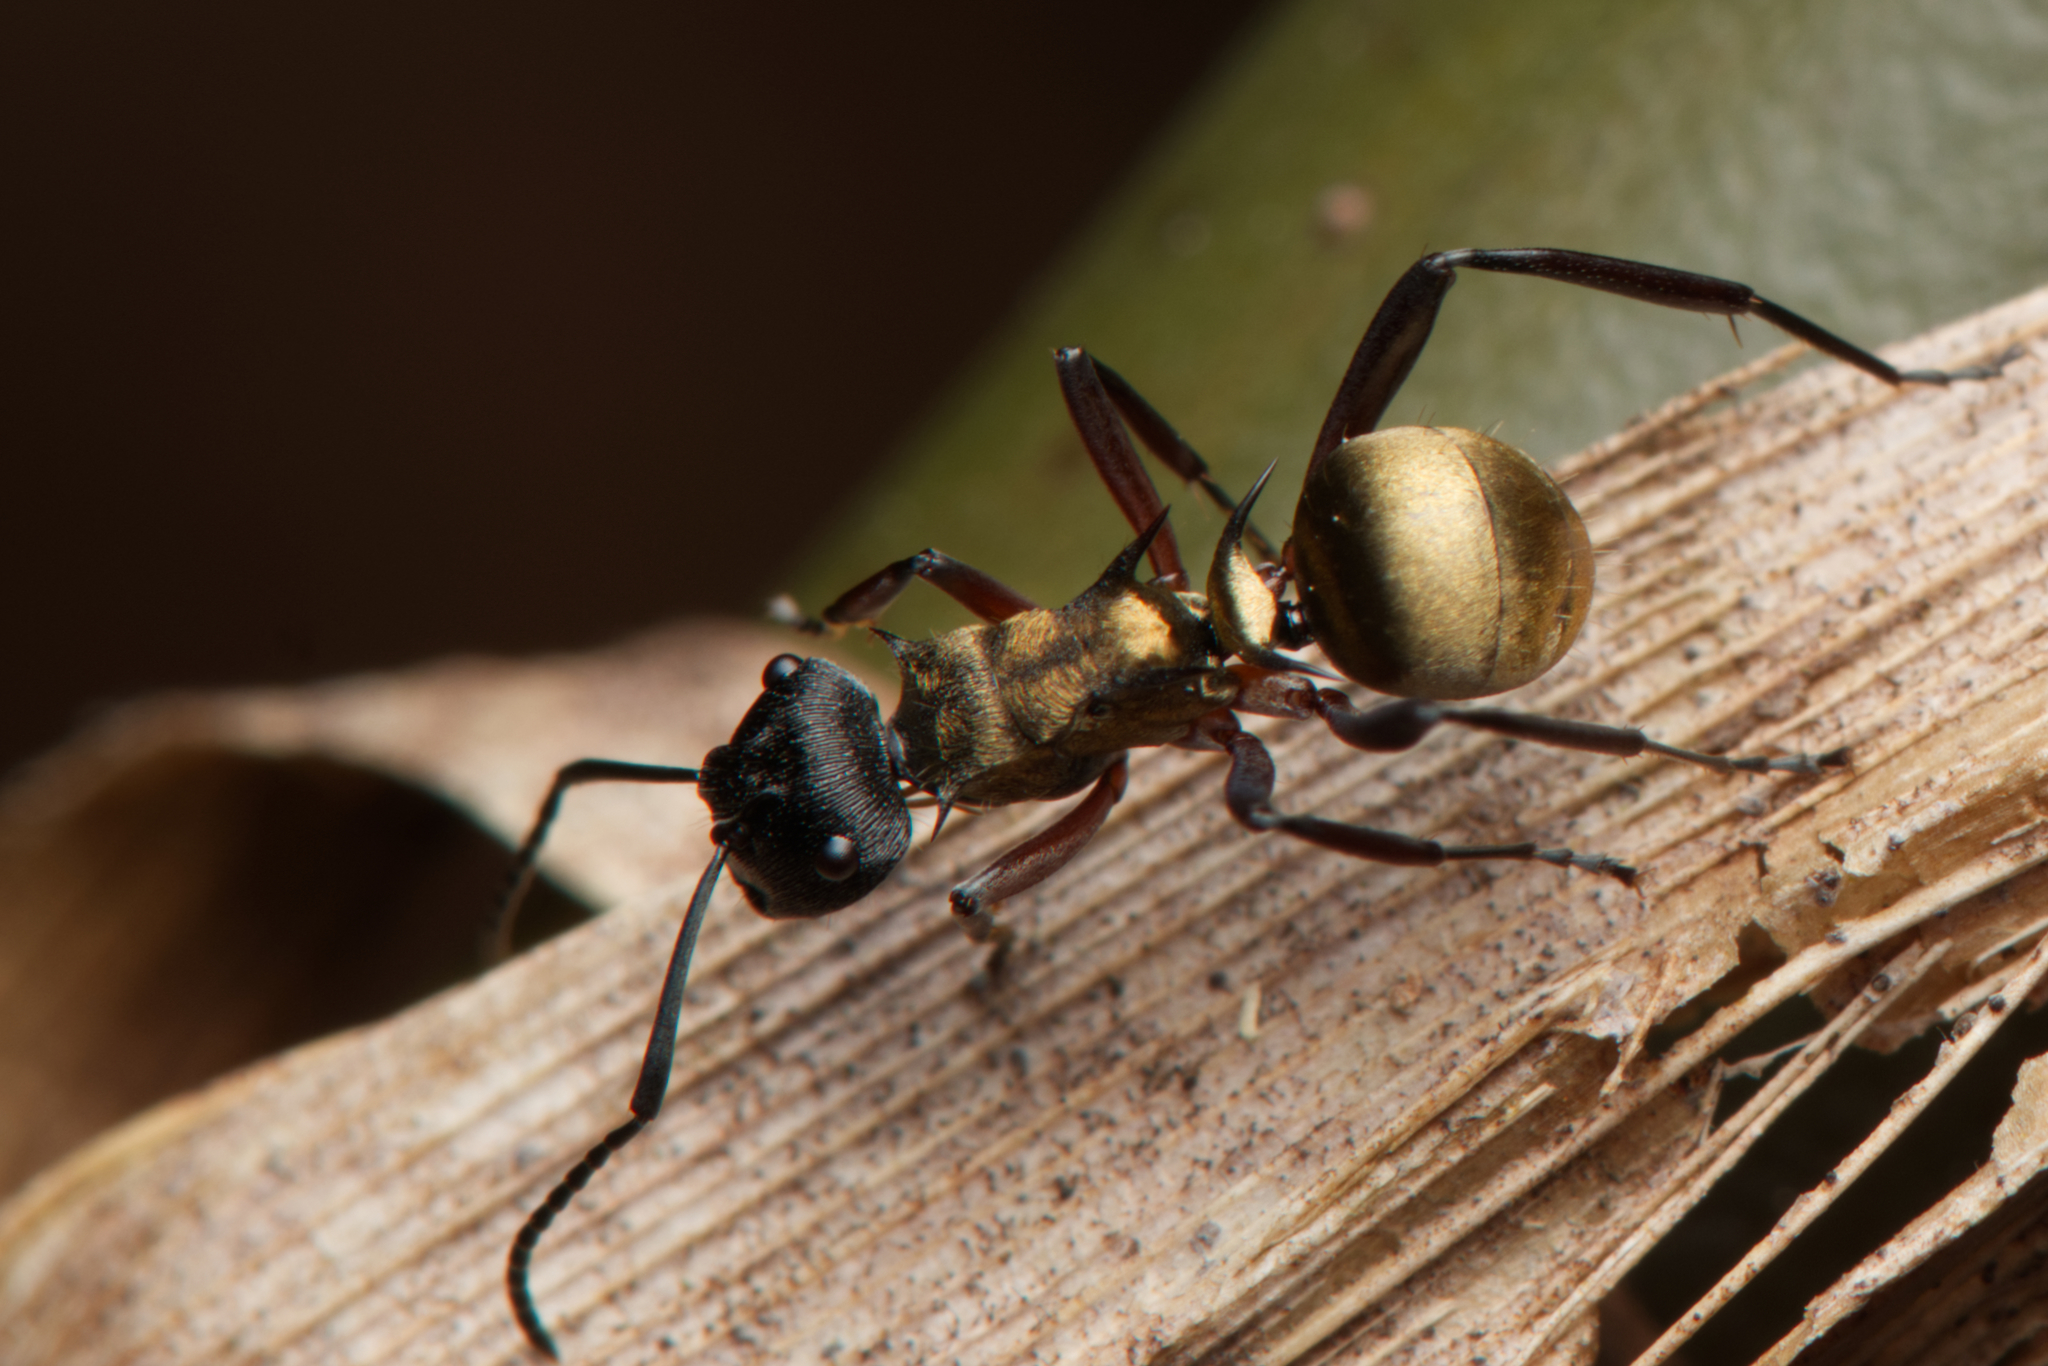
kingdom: Animalia
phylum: Arthropoda
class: Insecta
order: Hymenoptera
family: Formicidae
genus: Polyrhachis
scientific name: Polyrhachis rufifemur
